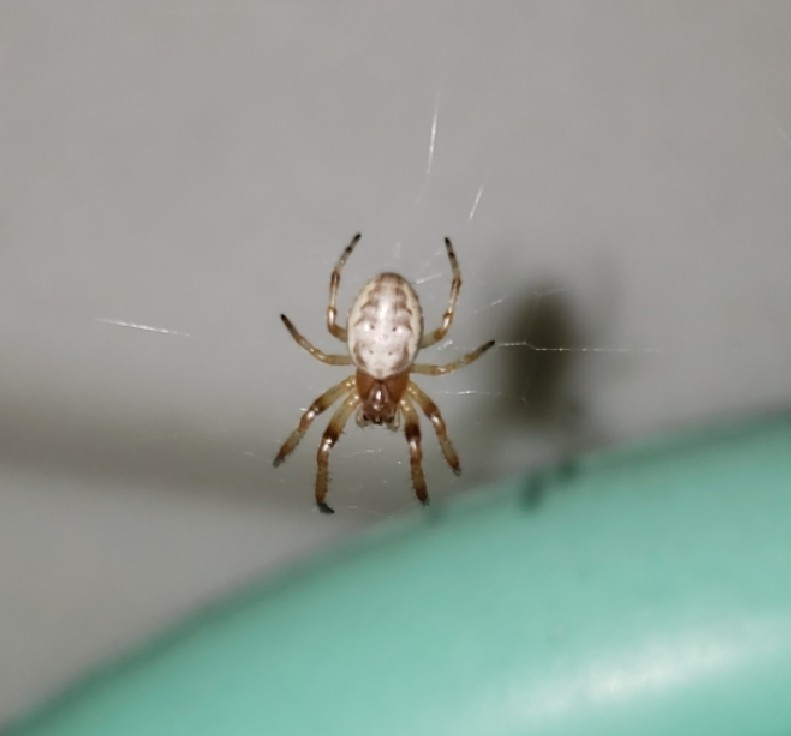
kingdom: Animalia
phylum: Arthropoda
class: Arachnida
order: Araneae
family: Araneidae
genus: Larinioides
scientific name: Larinioides cornutus
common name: Furrow orbweaver
